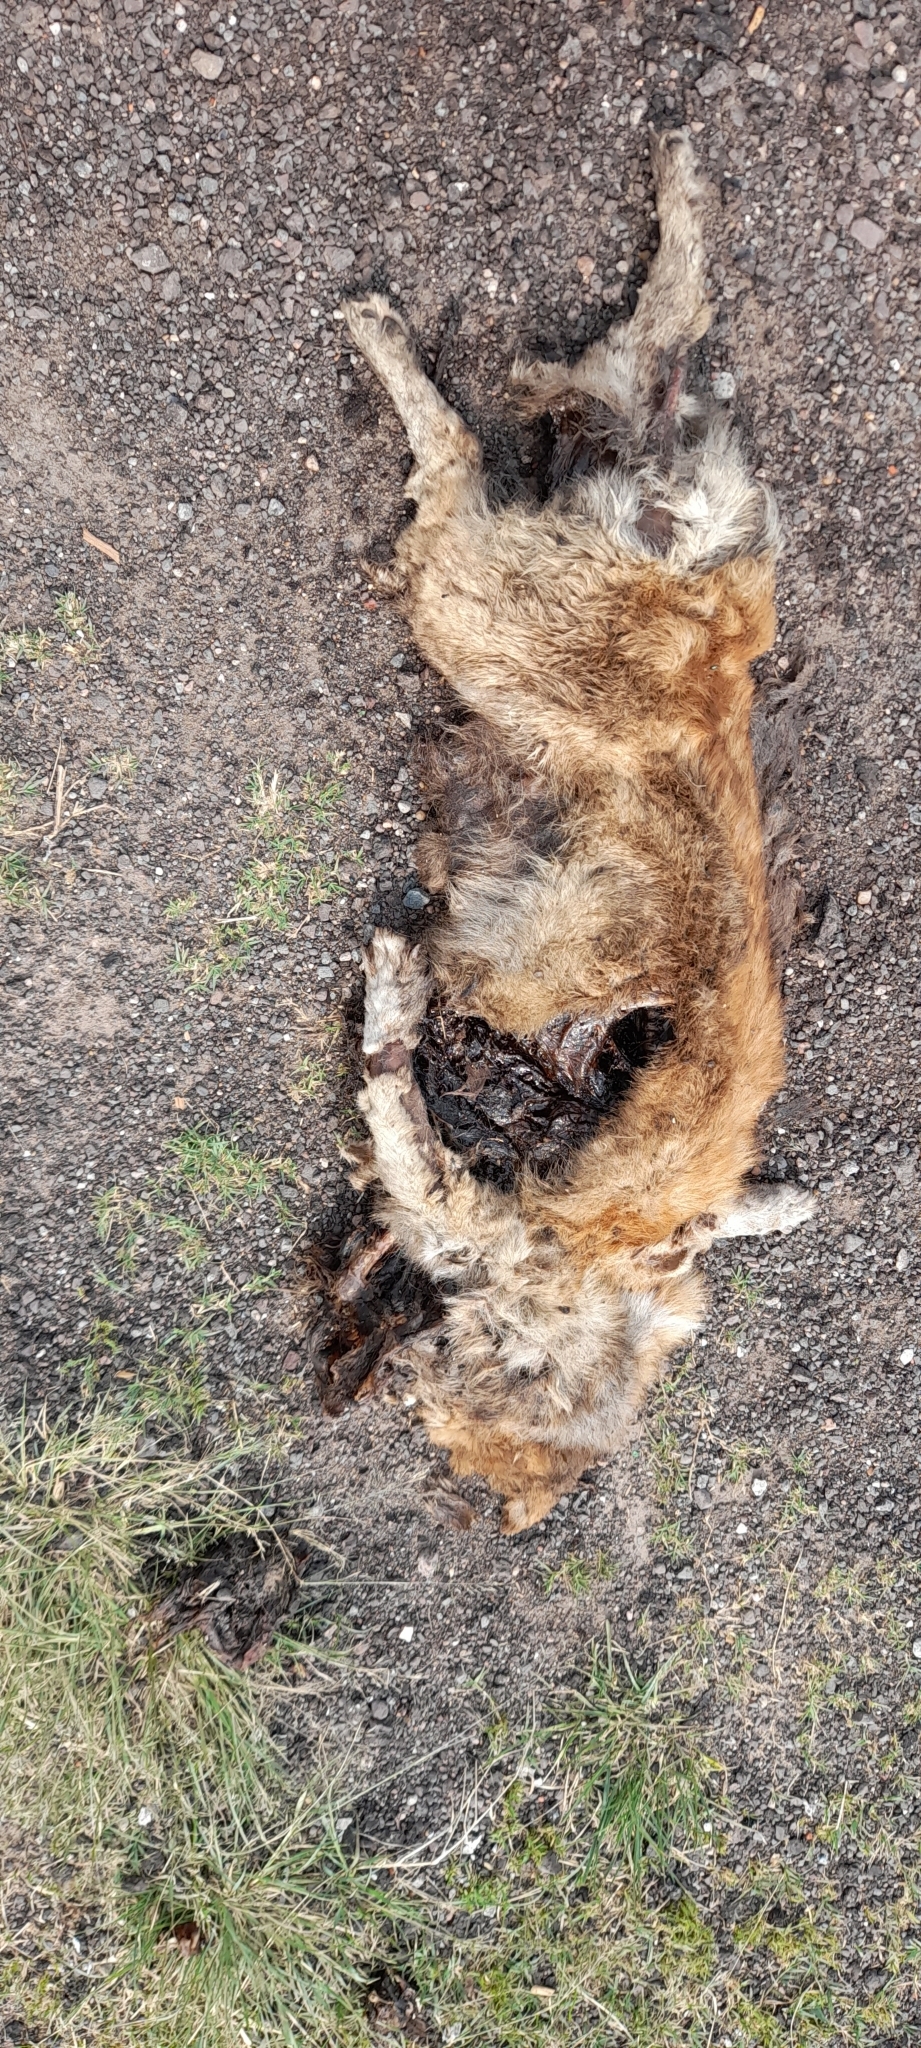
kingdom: Animalia
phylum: Chordata
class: Mammalia
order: Carnivora
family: Canidae
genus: Canis
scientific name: Canis lupus
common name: Gray wolf
